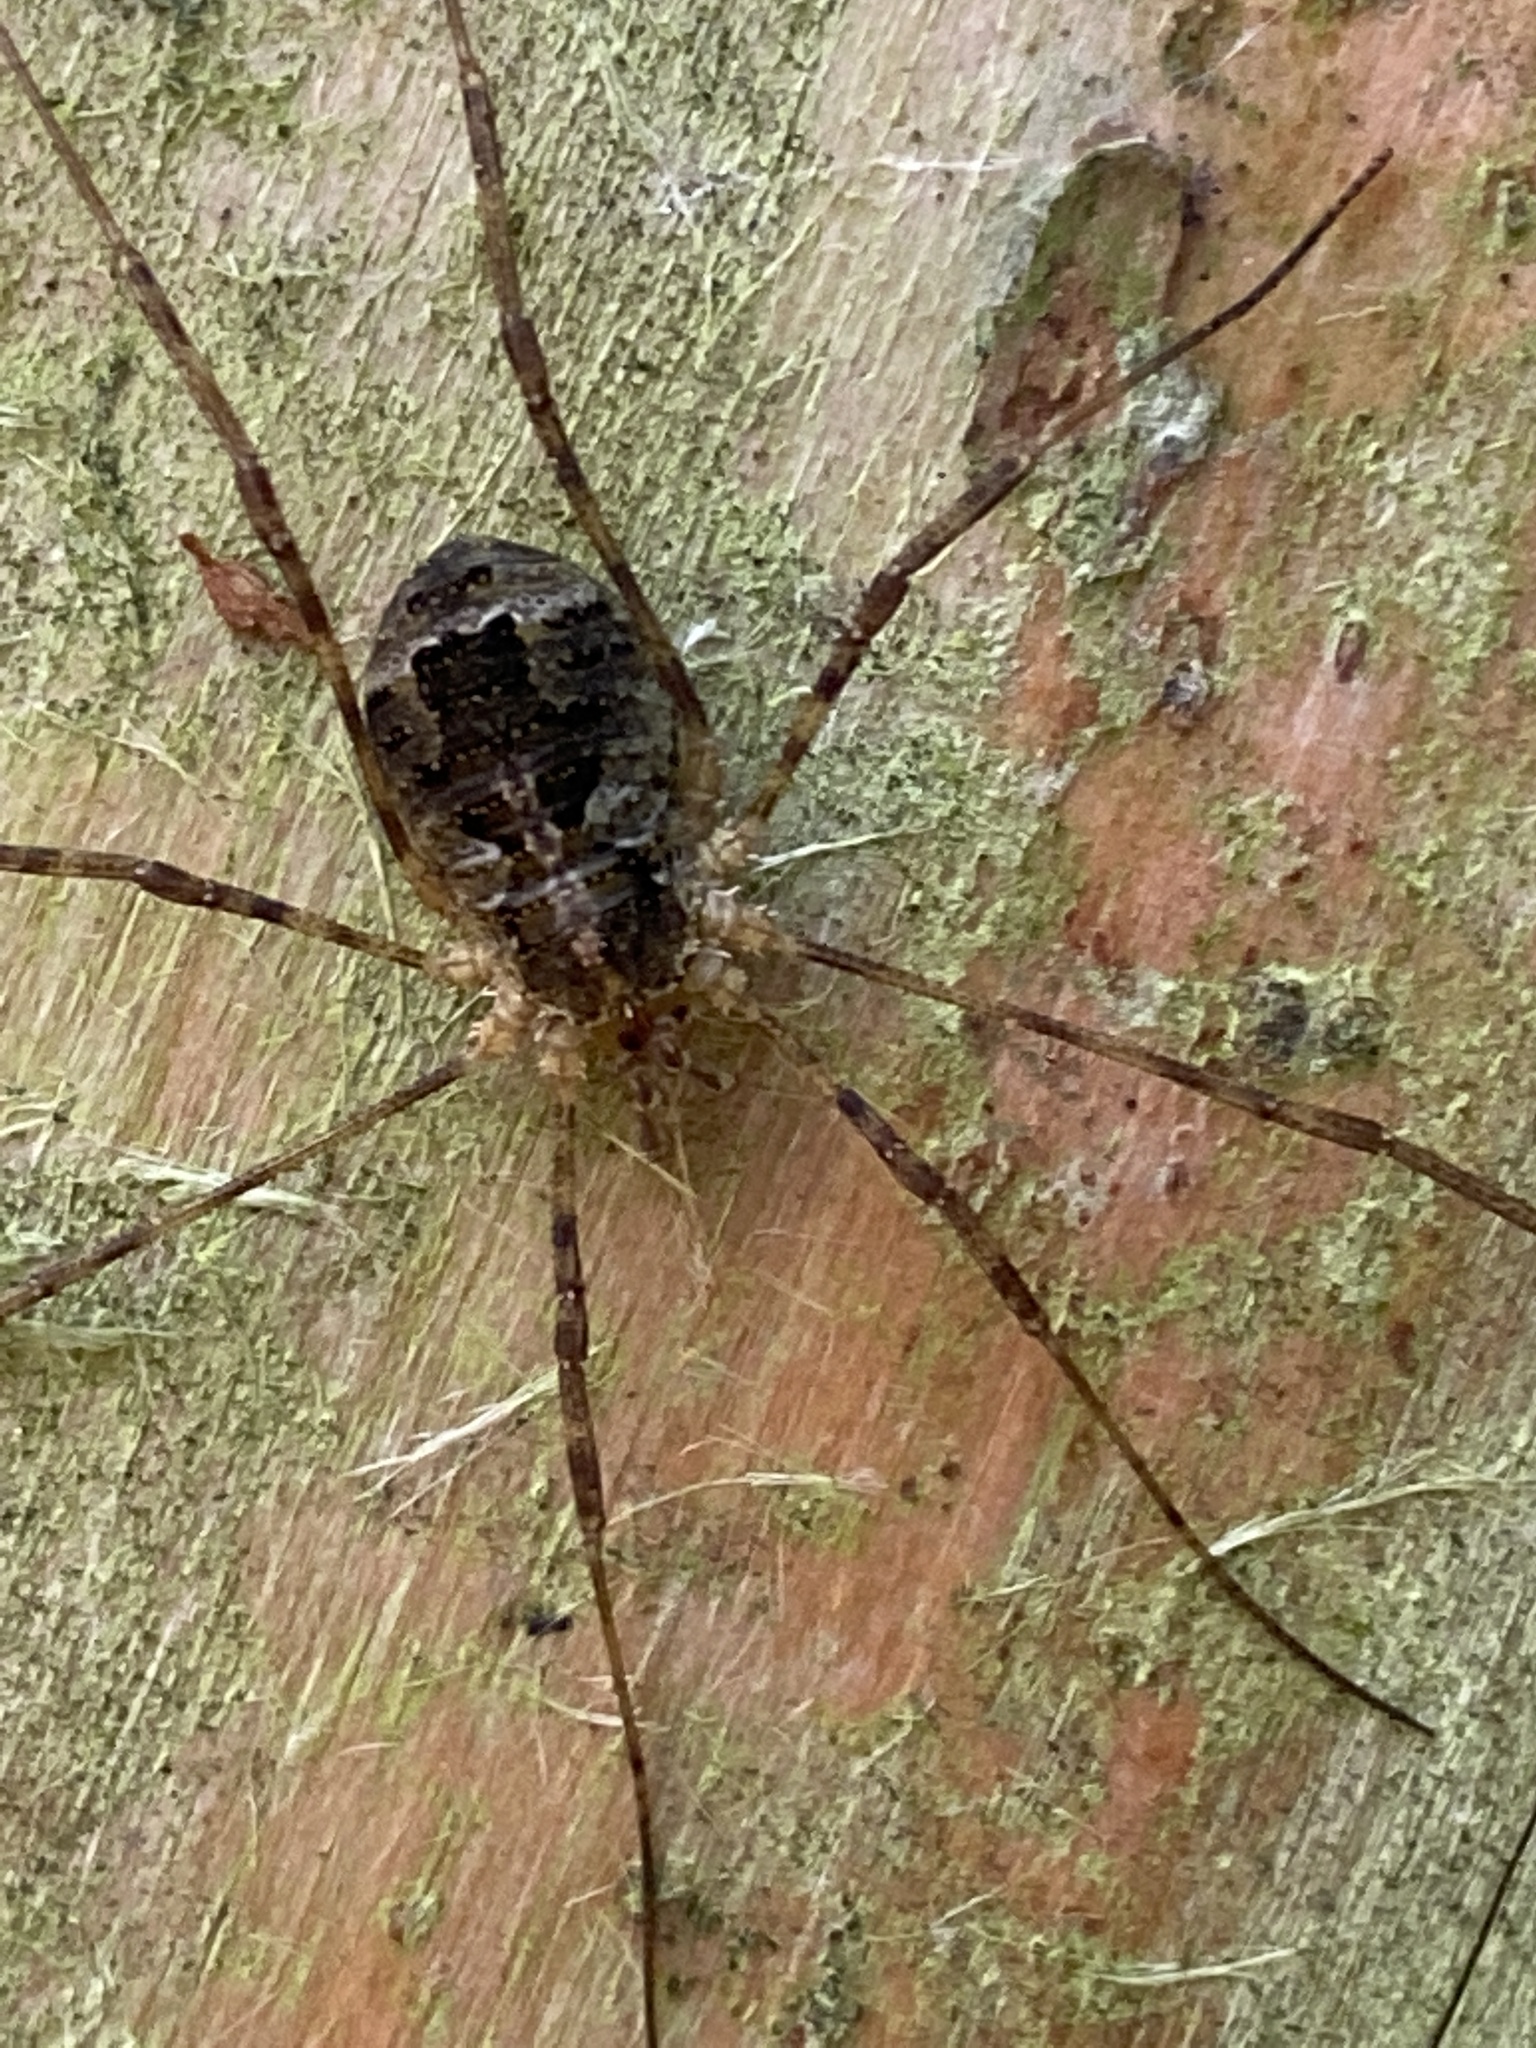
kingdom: Animalia
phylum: Arthropoda
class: Arachnida
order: Opiliones
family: Phalangiidae
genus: Lacinius
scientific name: Lacinius dentiger
